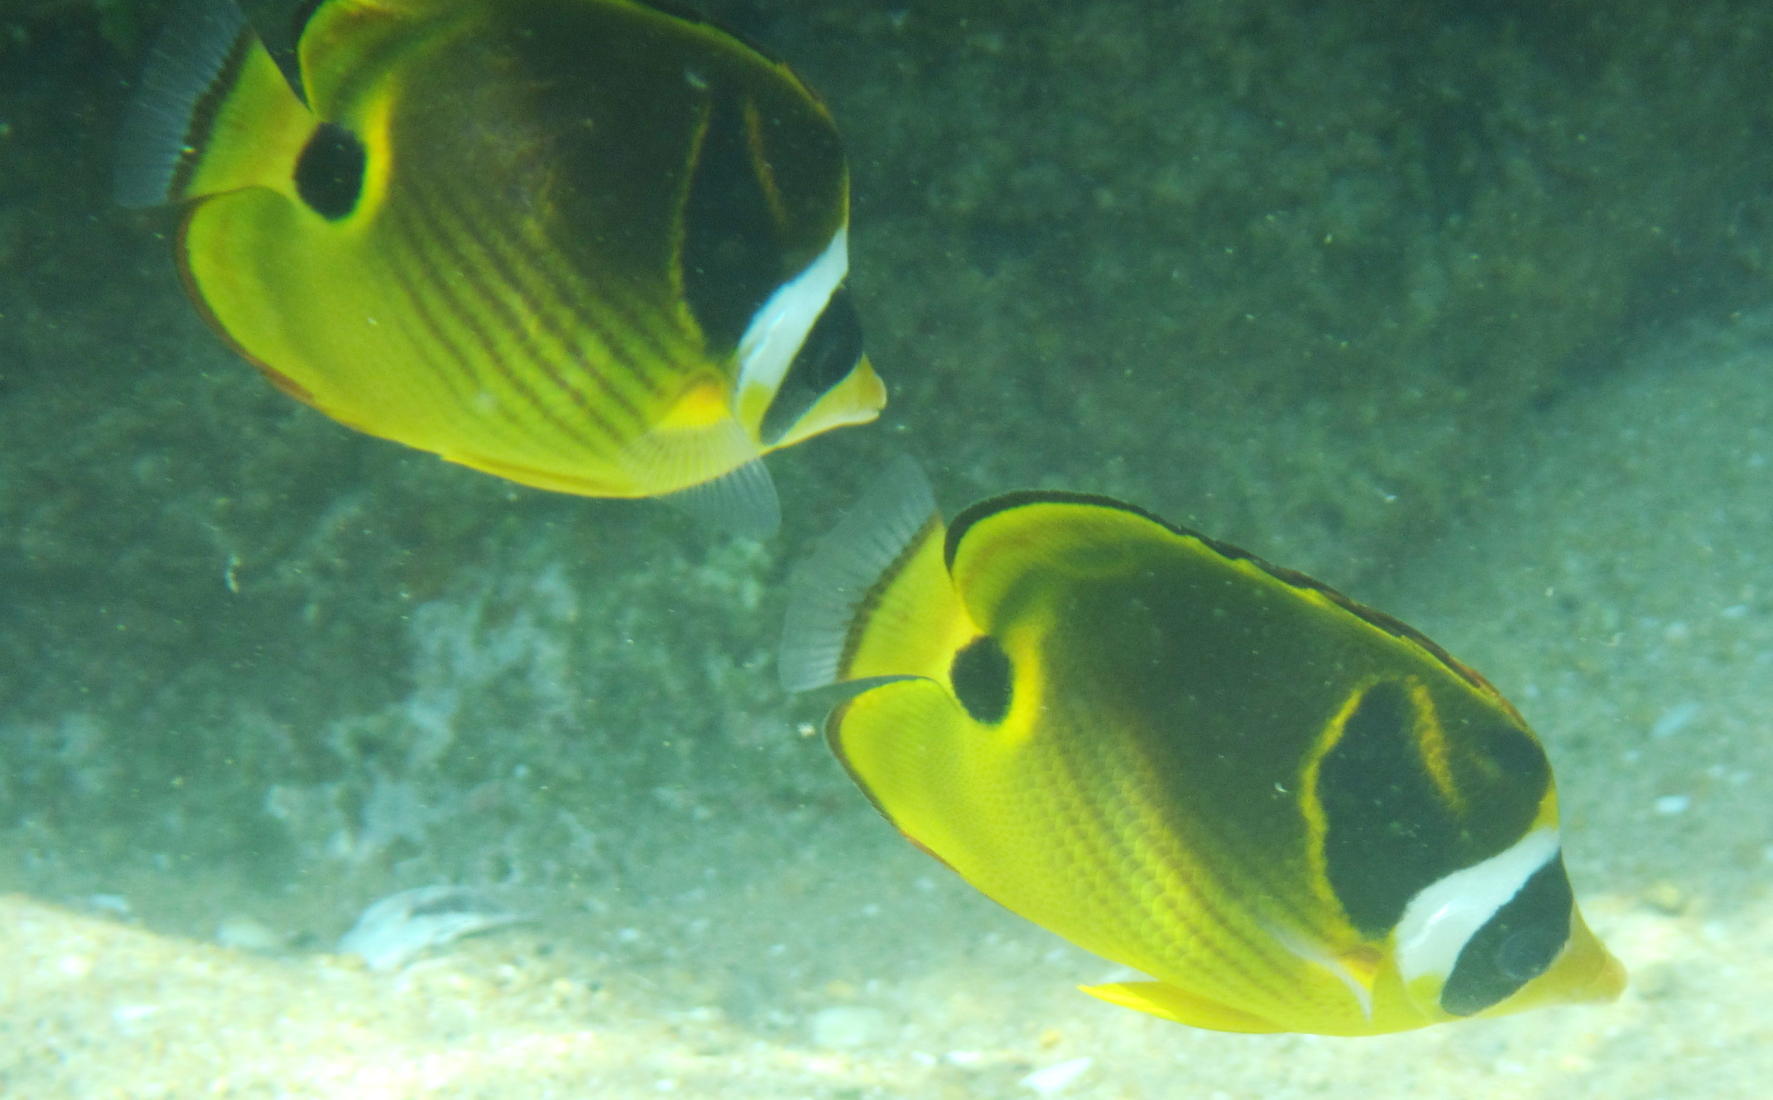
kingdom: Animalia
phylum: Chordata
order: Perciformes
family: Chaetodontidae
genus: Chaetodon
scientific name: Chaetodon lunula
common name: Raccoon butterflyfish
